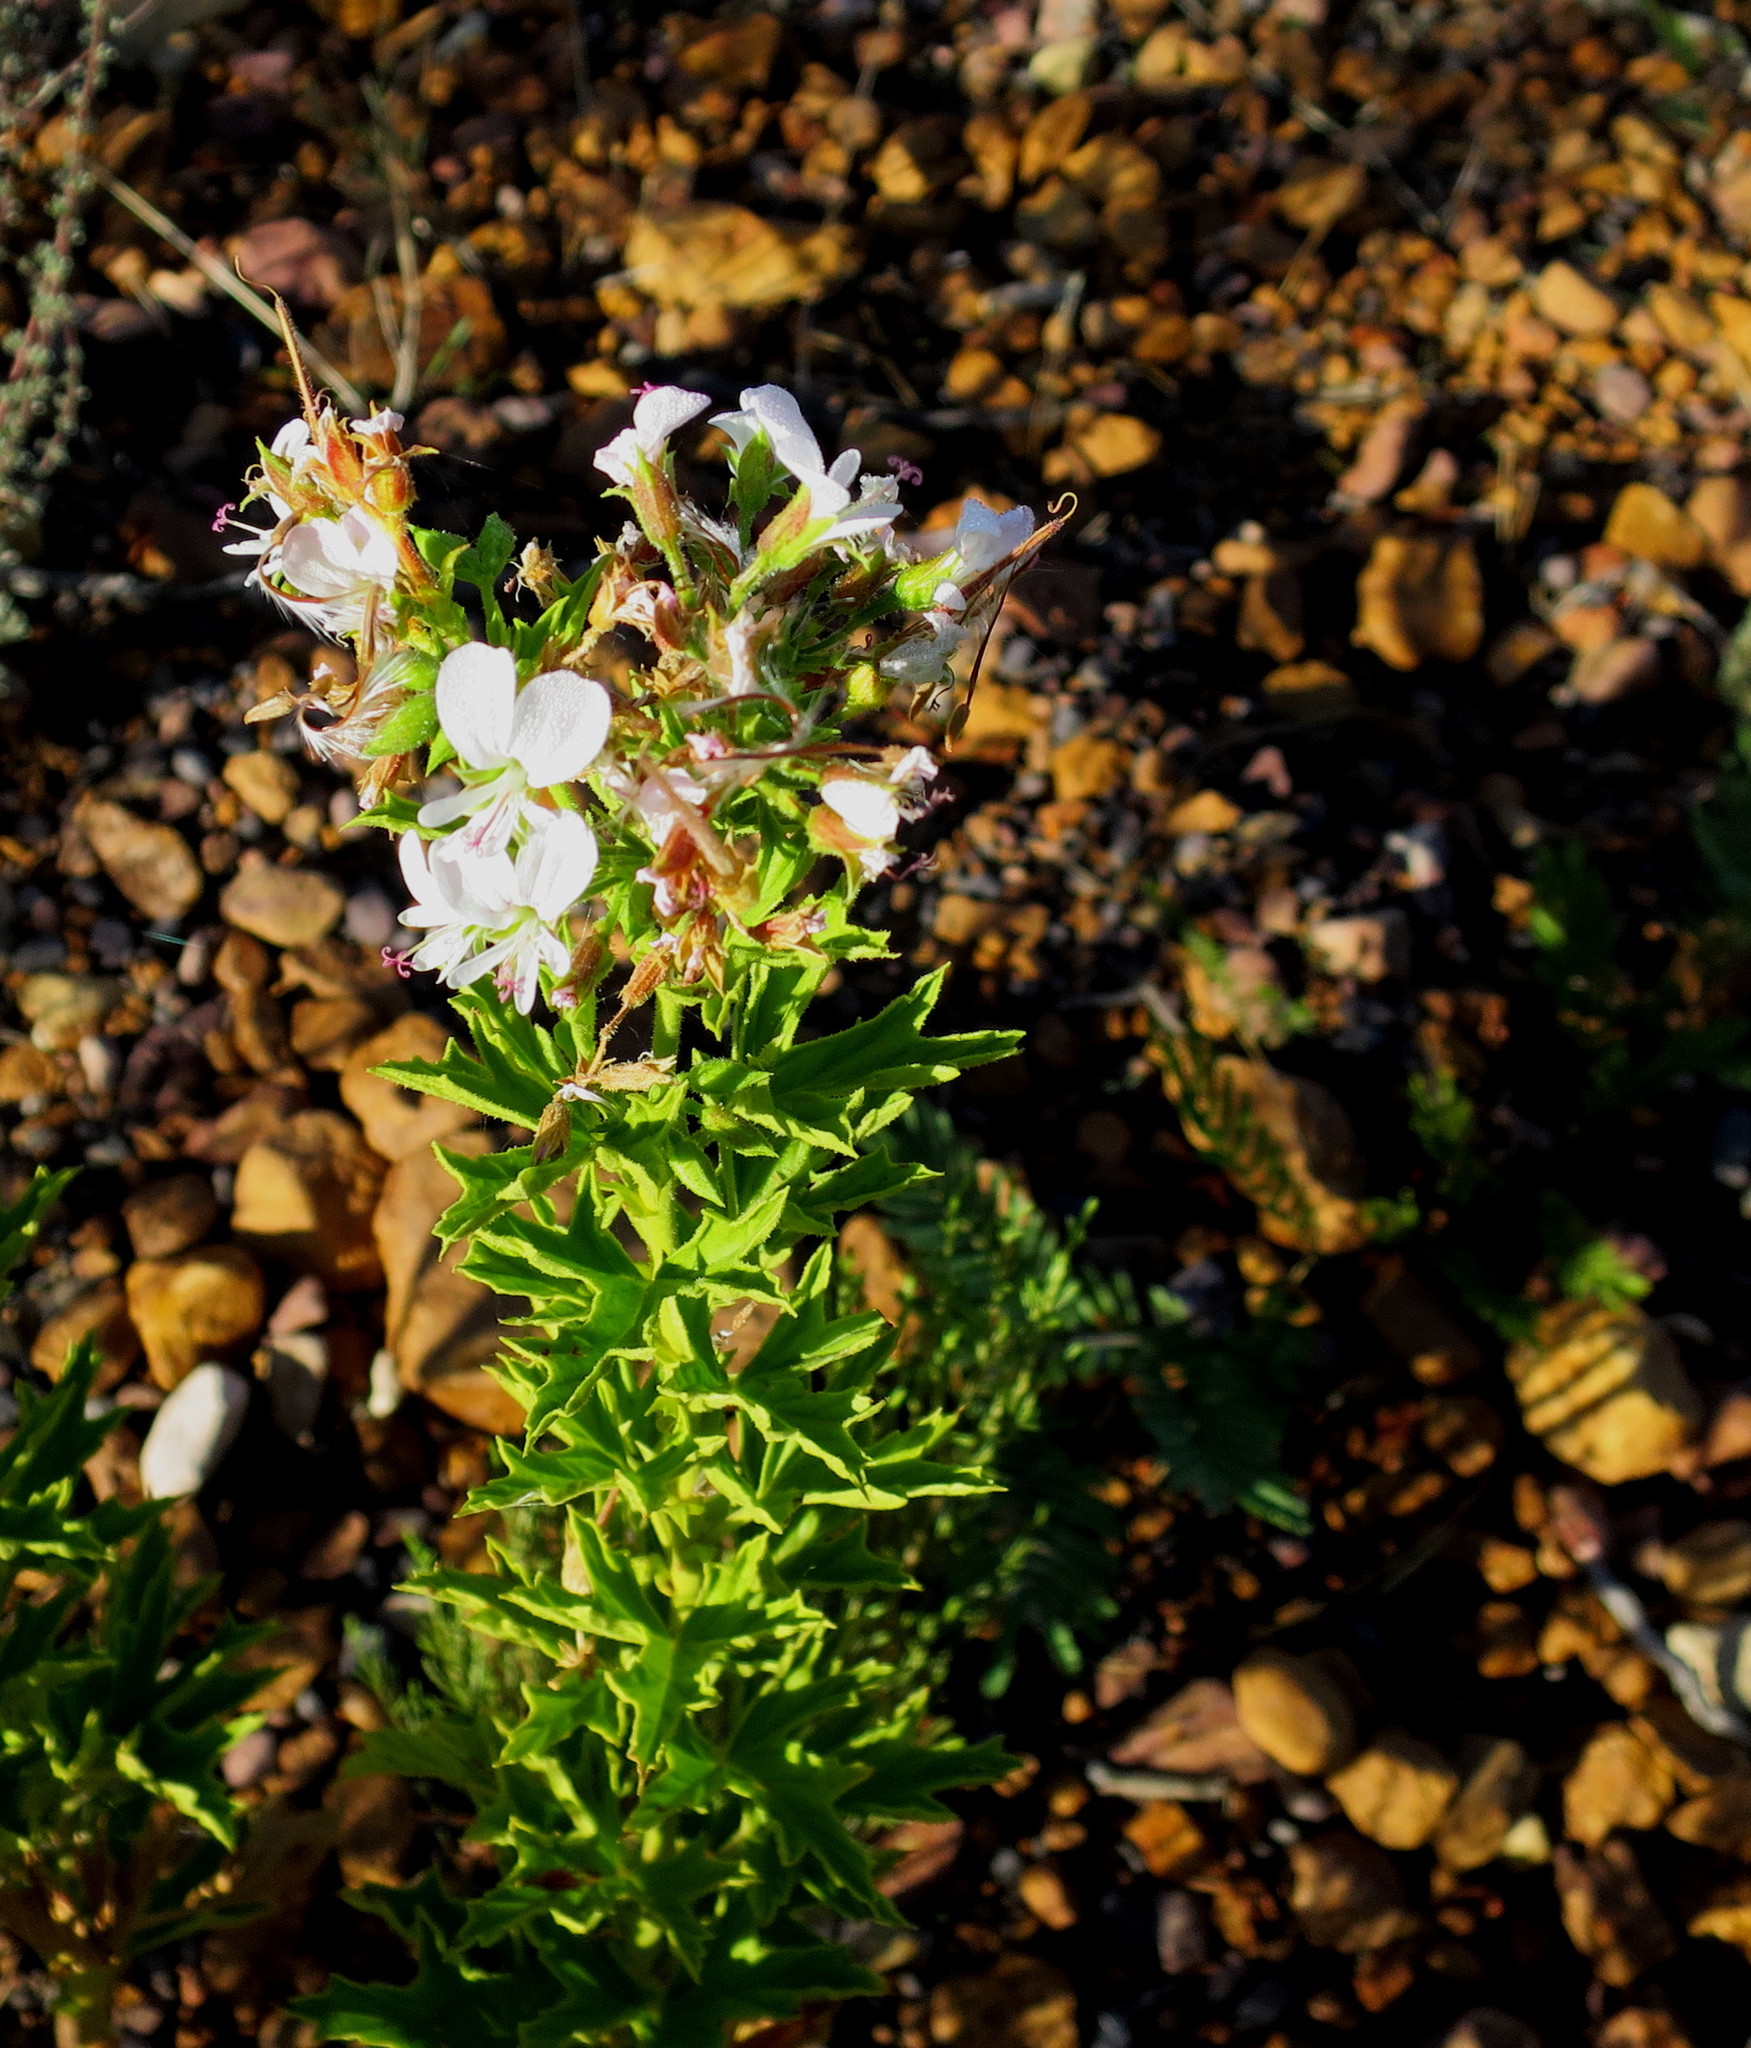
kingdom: Plantae
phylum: Tracheophyta
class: Magnoliopsida
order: Geraniales
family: Geraniaceae
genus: Pelargonium
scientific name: Pelargonium scabrum
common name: Apricot geranium
